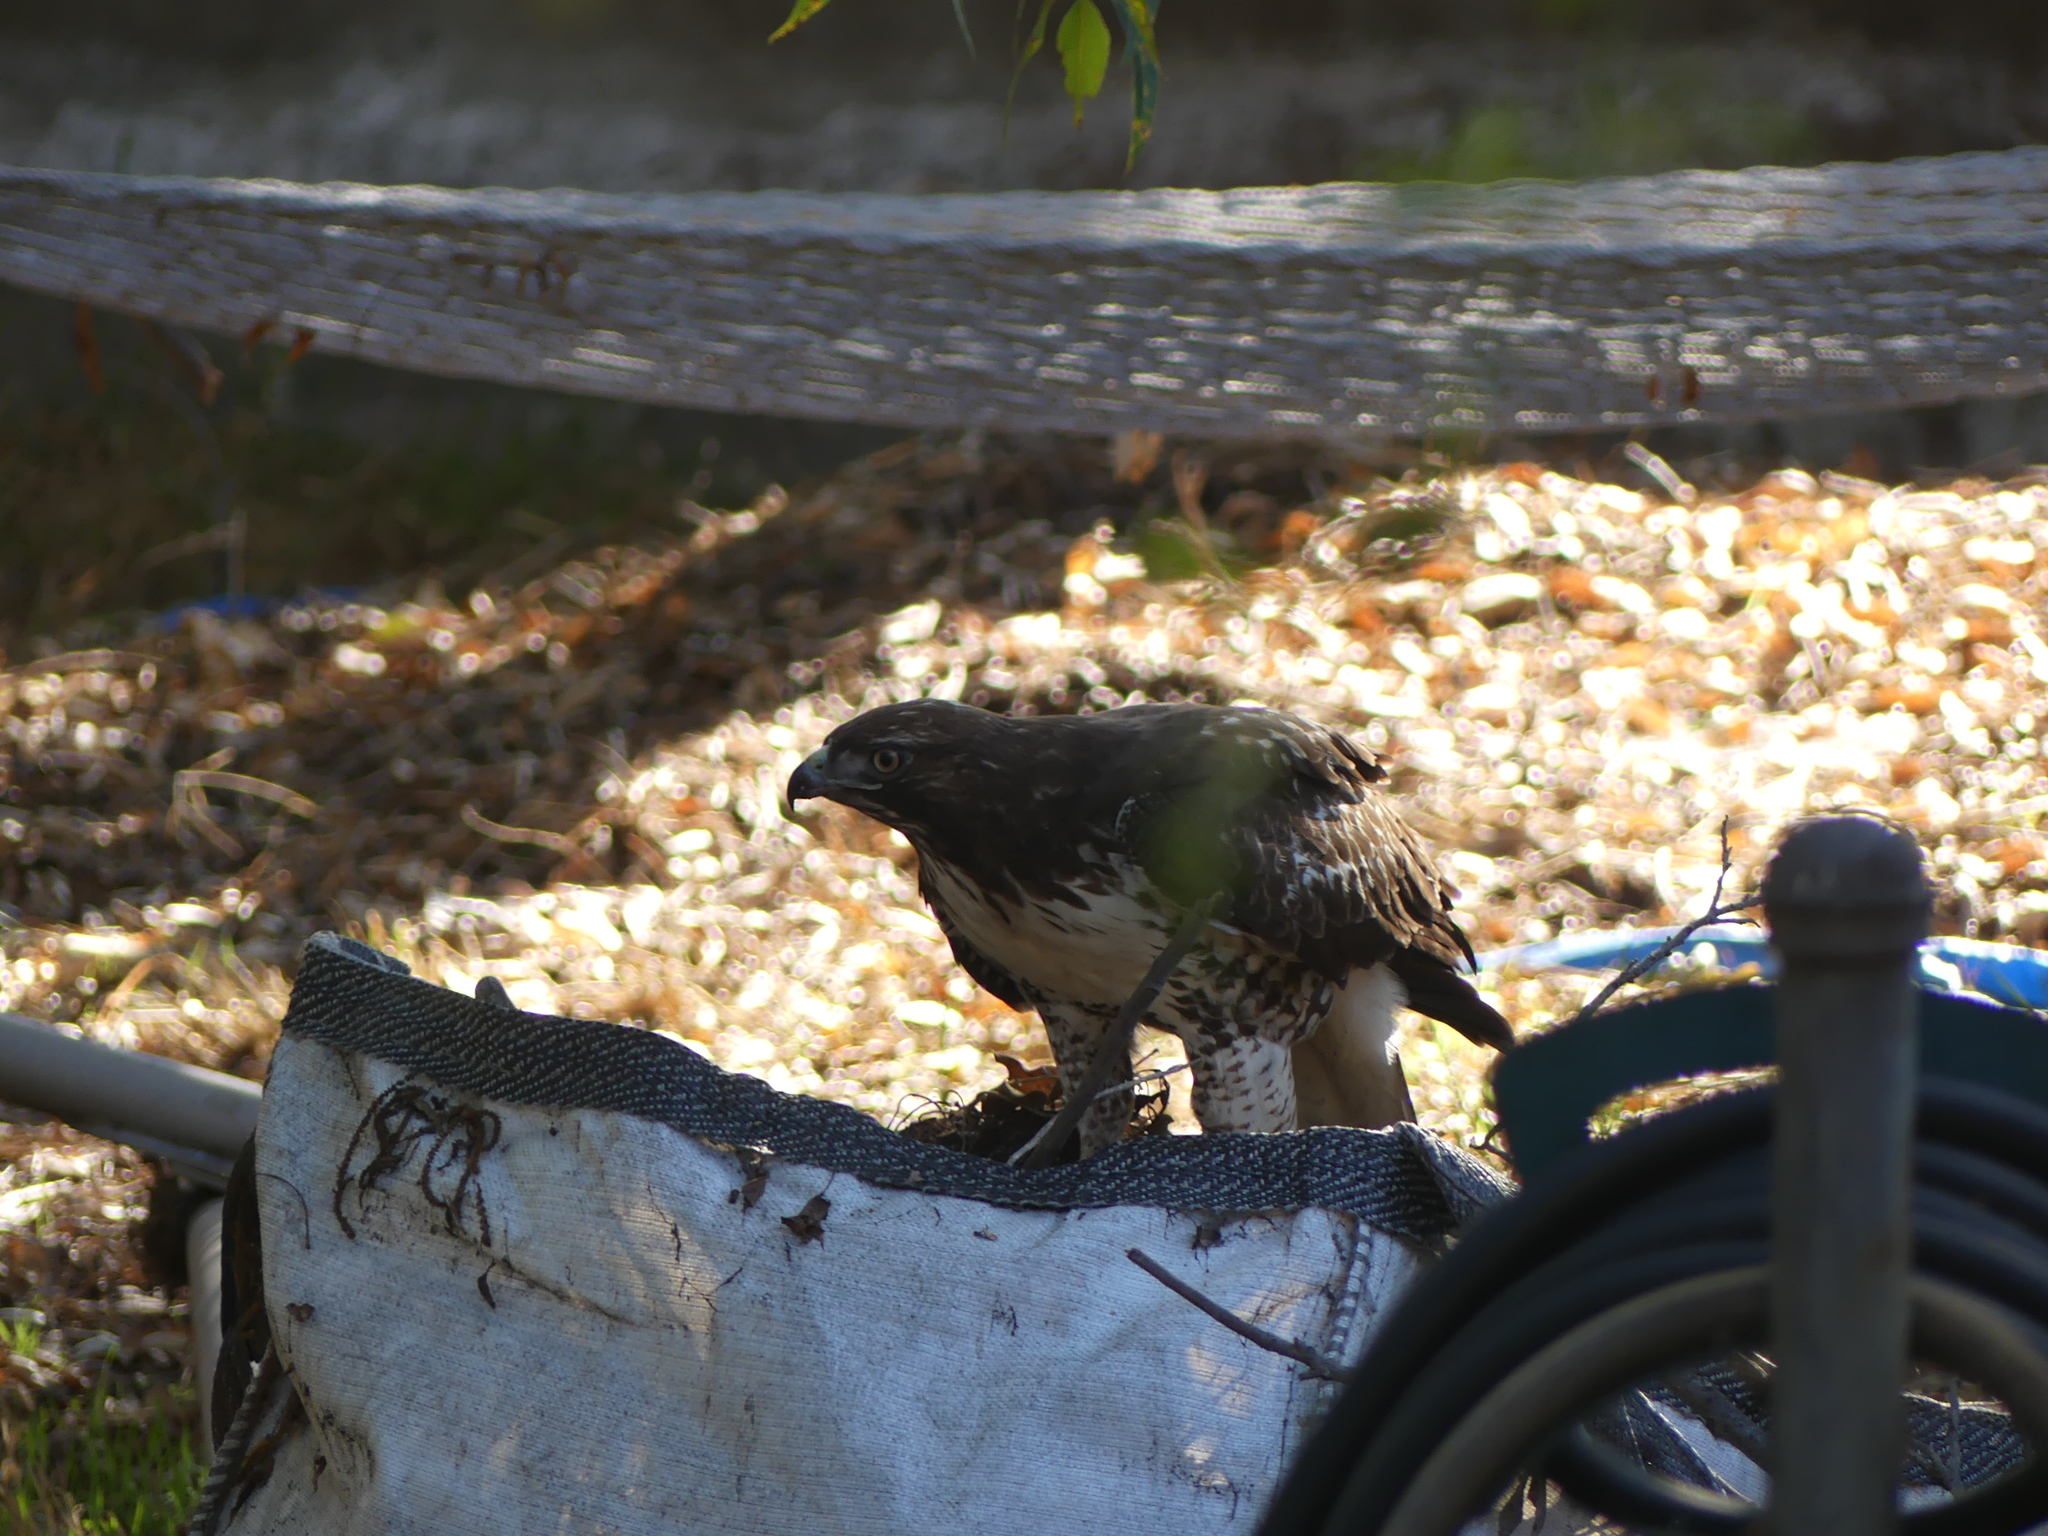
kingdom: Animalia
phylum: Chordata
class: Aves
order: Accipitriformes
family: Accipitridae
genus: Buteo
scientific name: Buteo jamaicensis
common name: Red-tailed hawk
